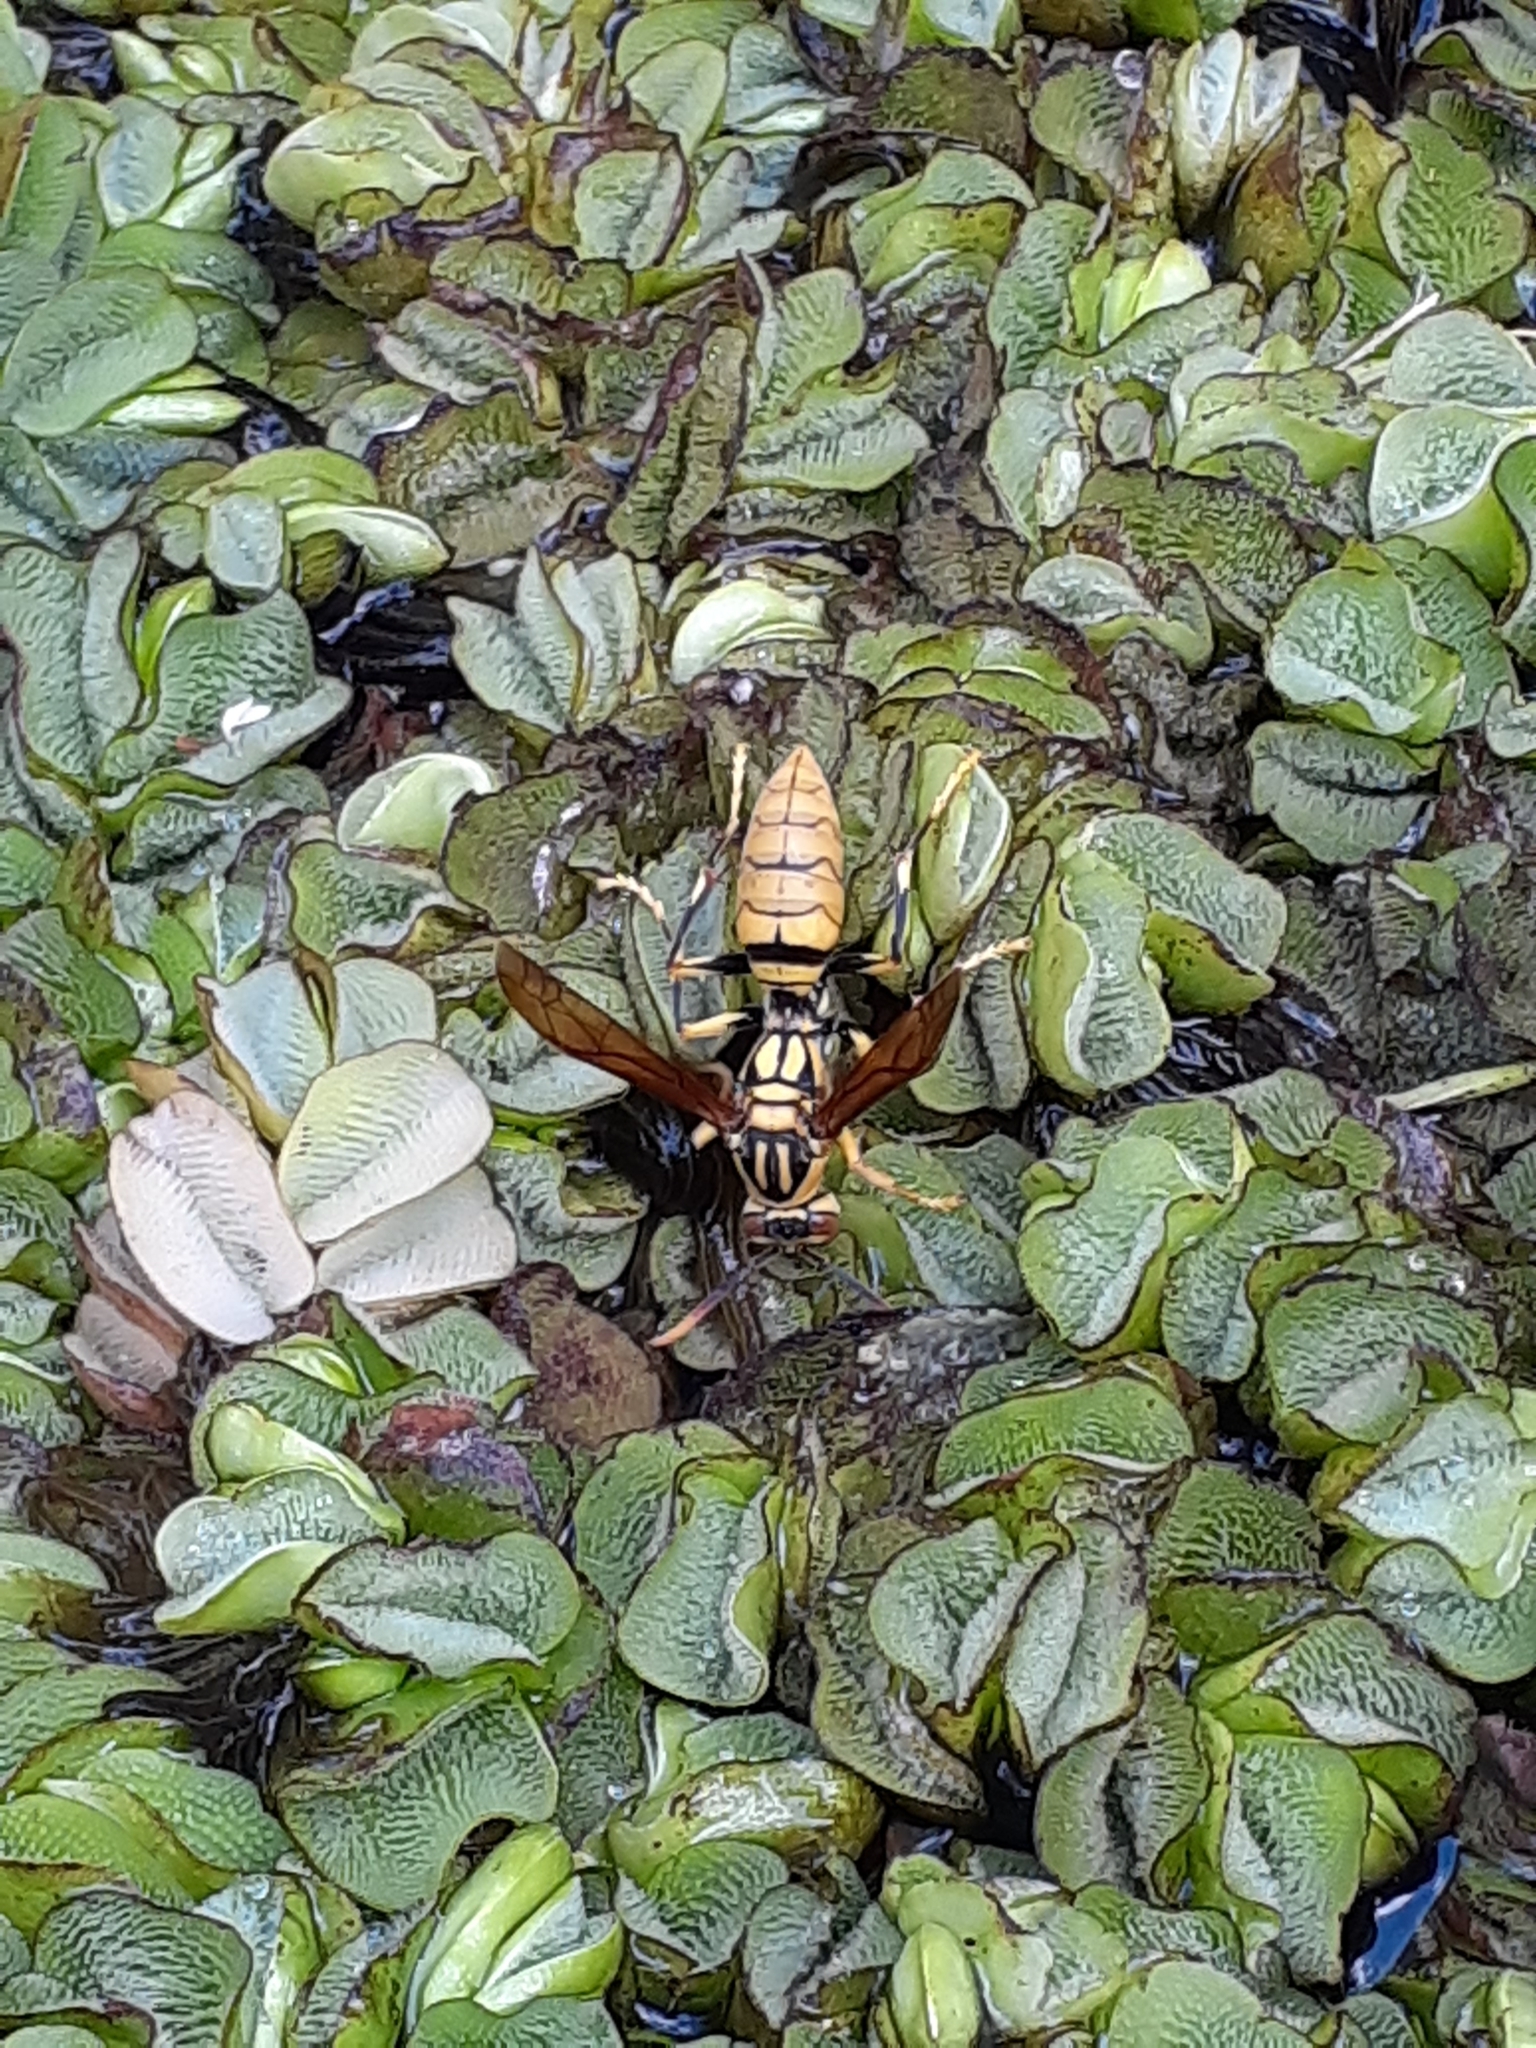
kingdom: Animalia
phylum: Arthropoda
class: Insecta
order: Hymenoptera
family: Eumenidae
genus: Polistes
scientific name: Polistes rothneyi
